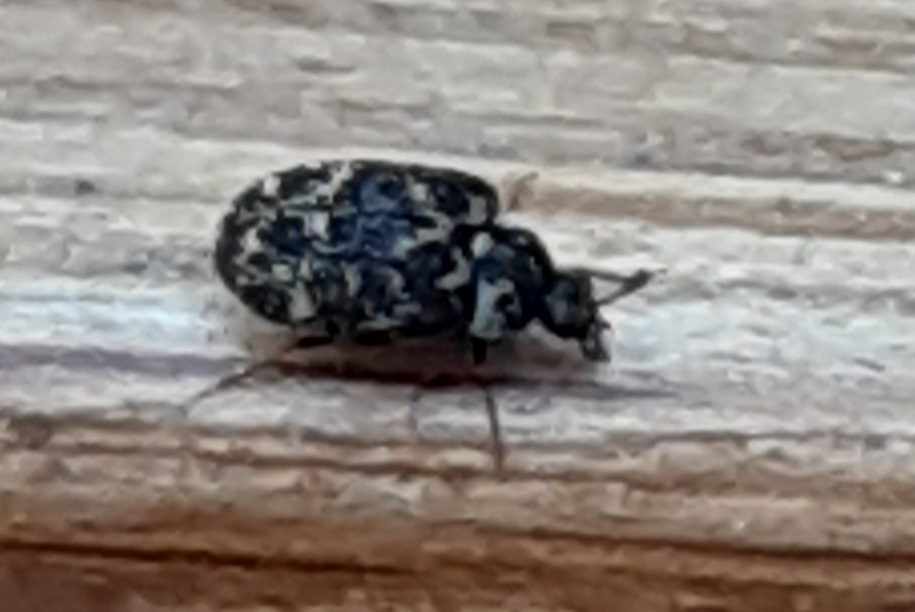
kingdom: Animalia
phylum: Arthropoda
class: Insecta
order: Coleoptera
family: Dermestidae
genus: Anthrenus
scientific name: Anthrenus museorum
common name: Museum beetle
